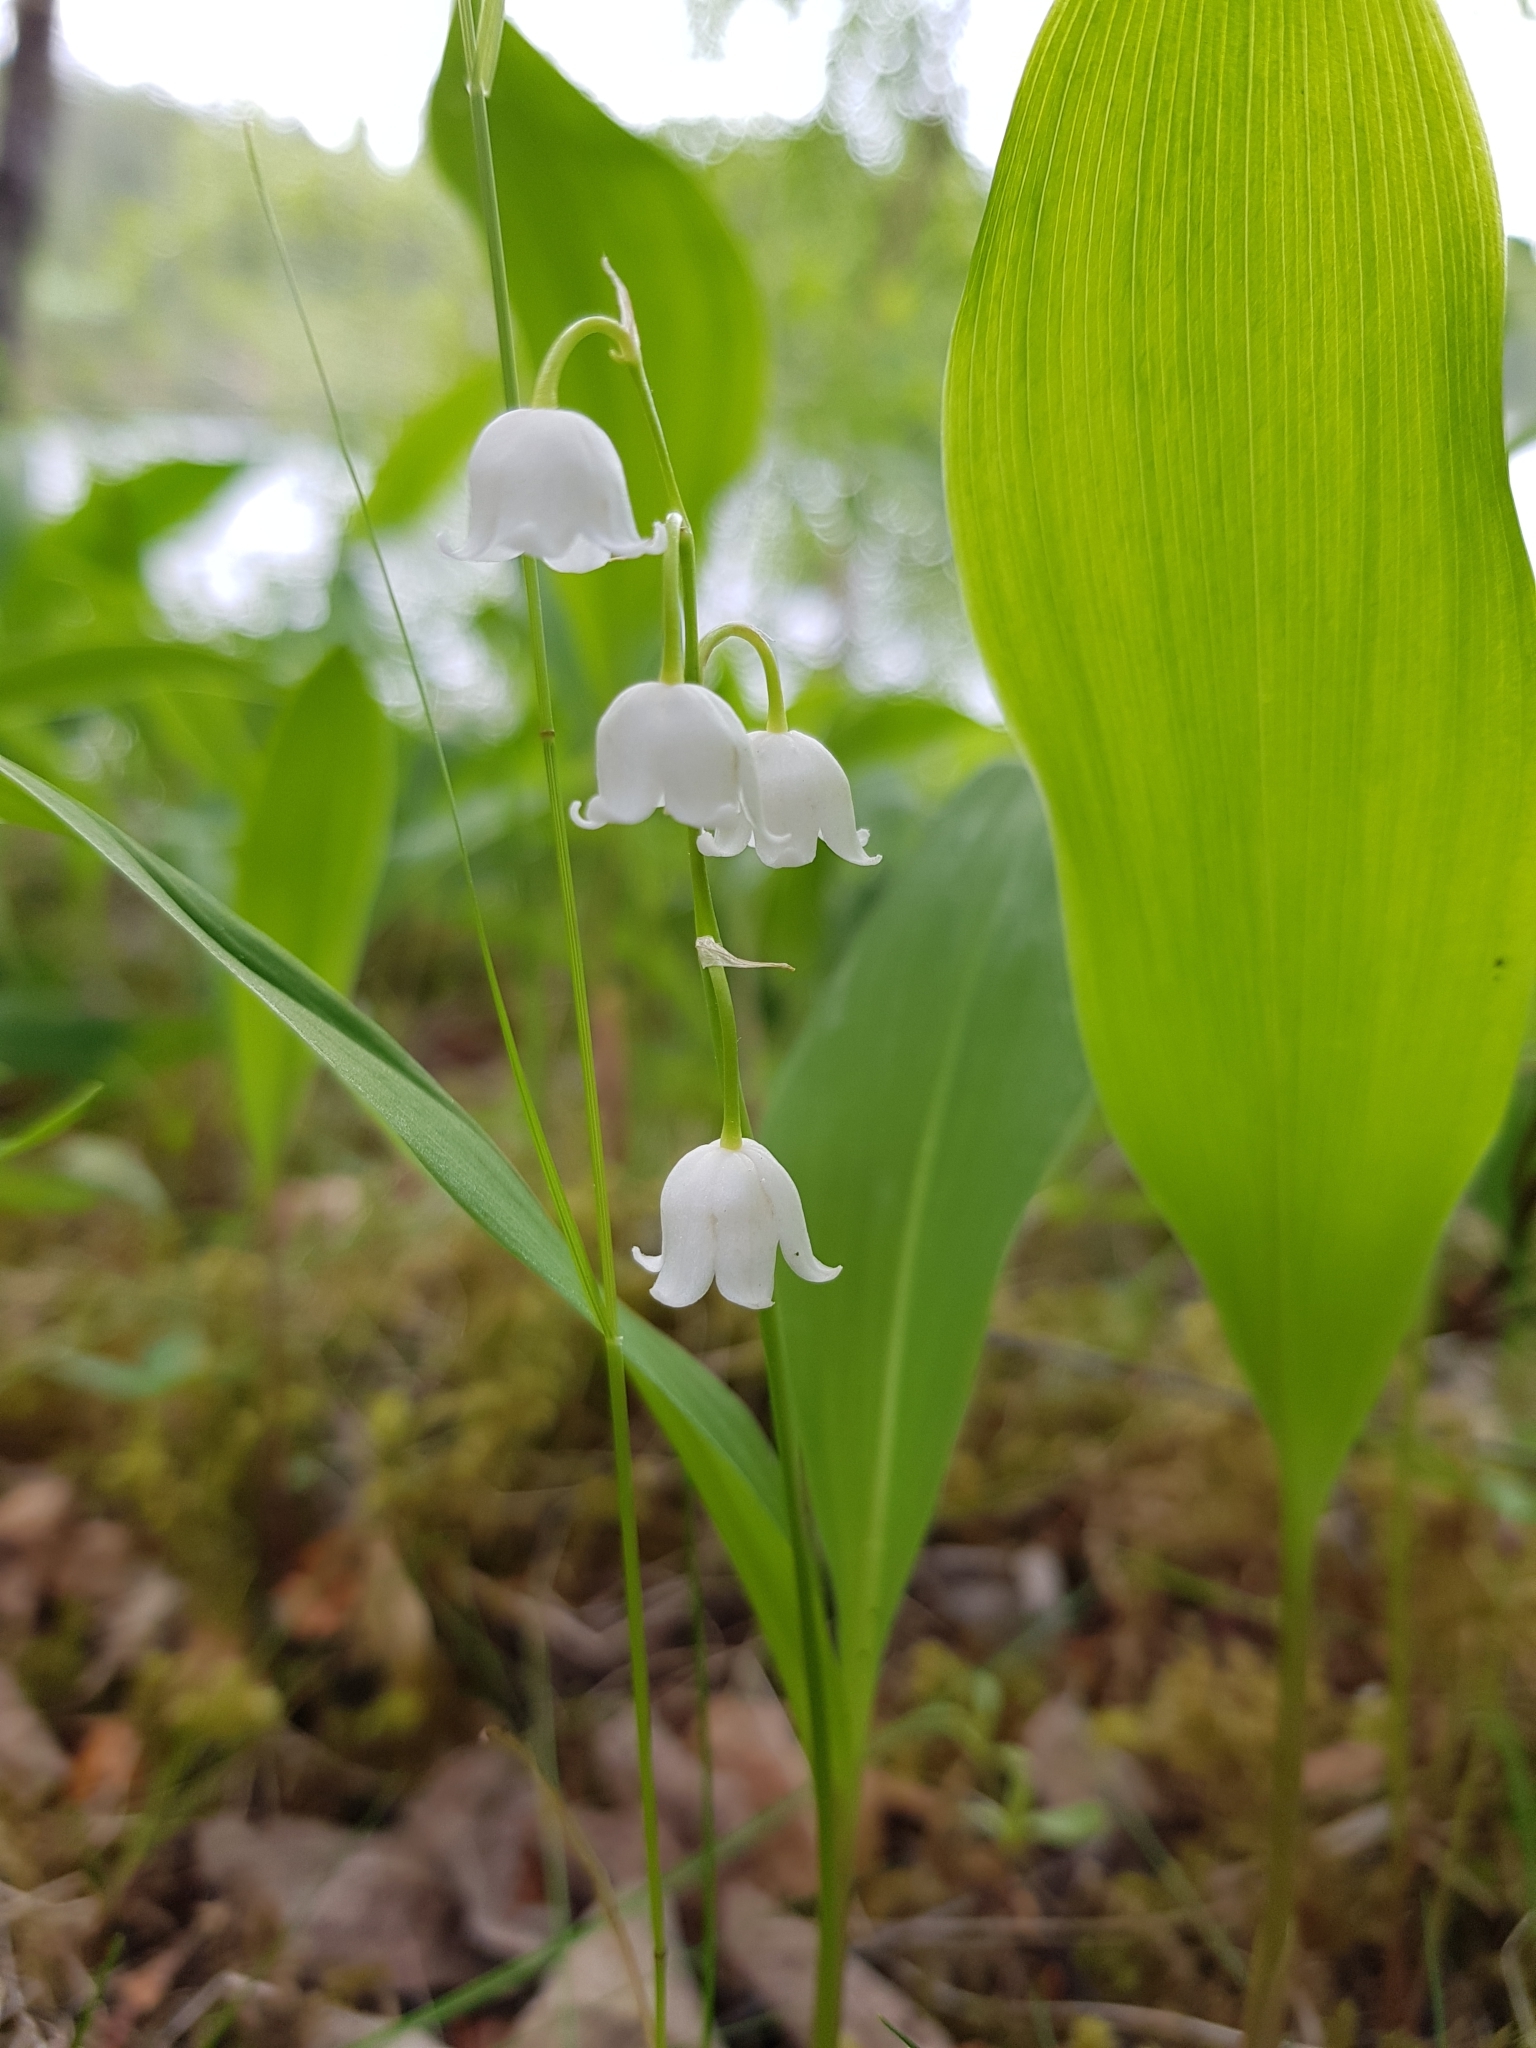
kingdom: Plantae
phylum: Tracheophyta
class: Liliopsida
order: Asparagales
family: Asparagaceae
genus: Convallaria
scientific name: Convallaria majalis
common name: Lily-of-the-valley
